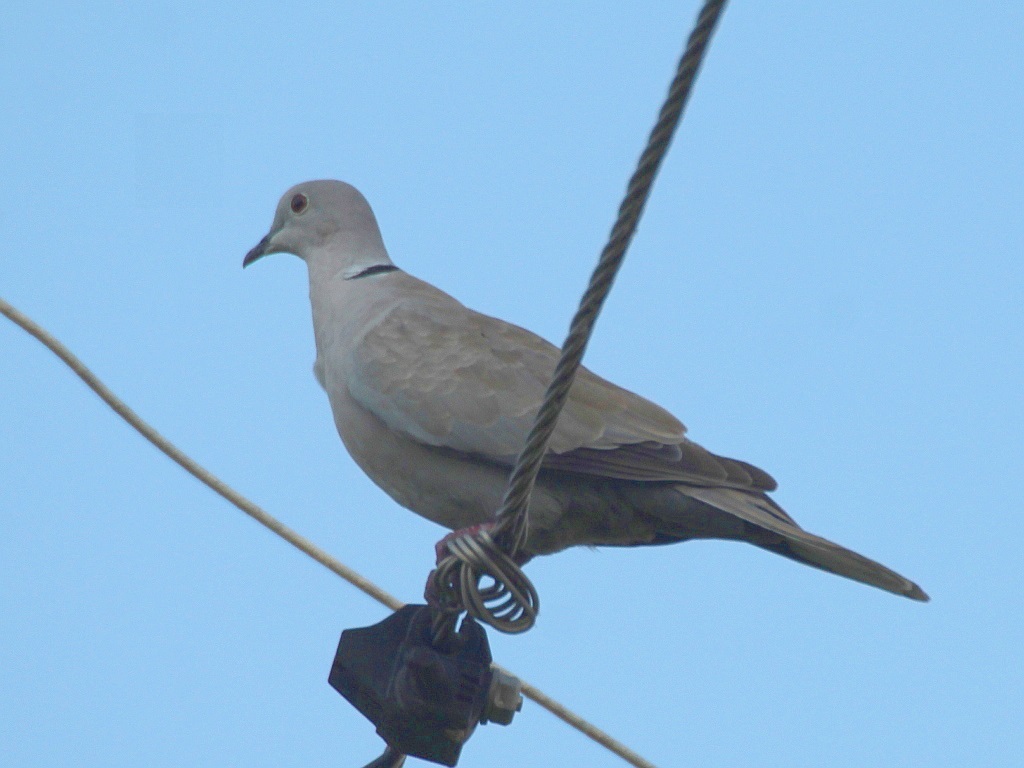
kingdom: Animalia
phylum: Chordata
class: Aves
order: Columbiformes
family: Columbidae
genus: Streptopelia
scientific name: Streptopelia decaocto
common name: Eurasian collared dove
